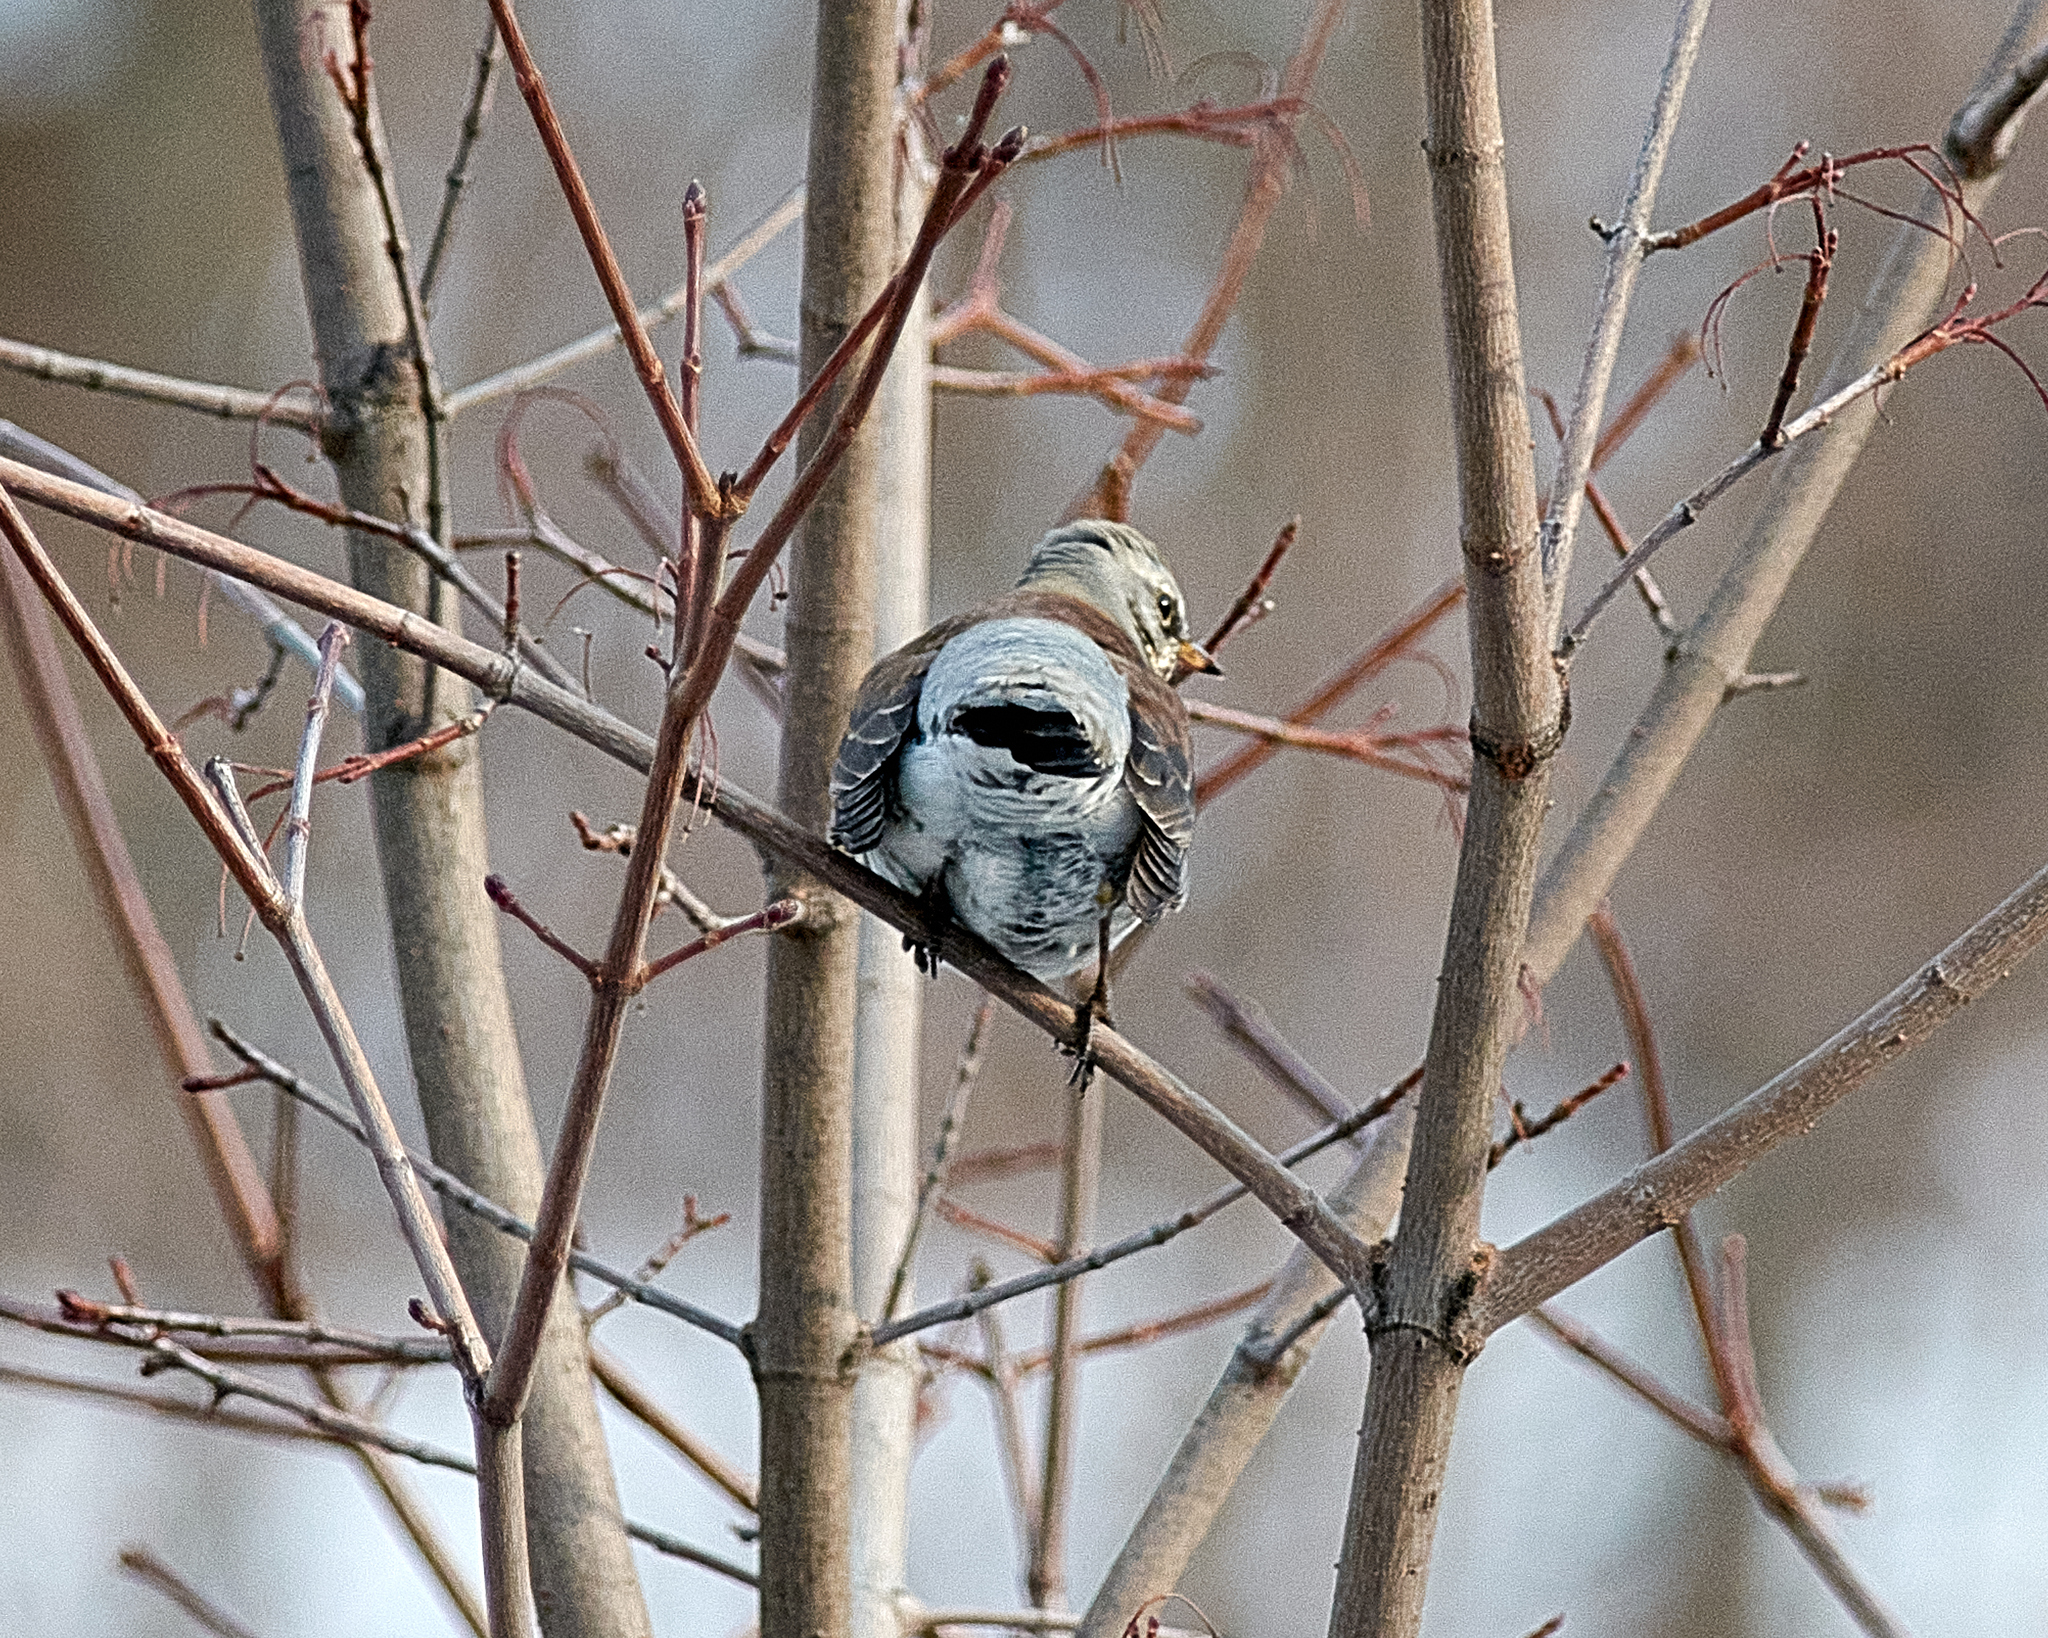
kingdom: Animalia
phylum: Chordata
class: Aves
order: Passeriformes
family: Turdidae
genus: Turdus
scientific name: Turdus pilaris
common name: Fieldfare
